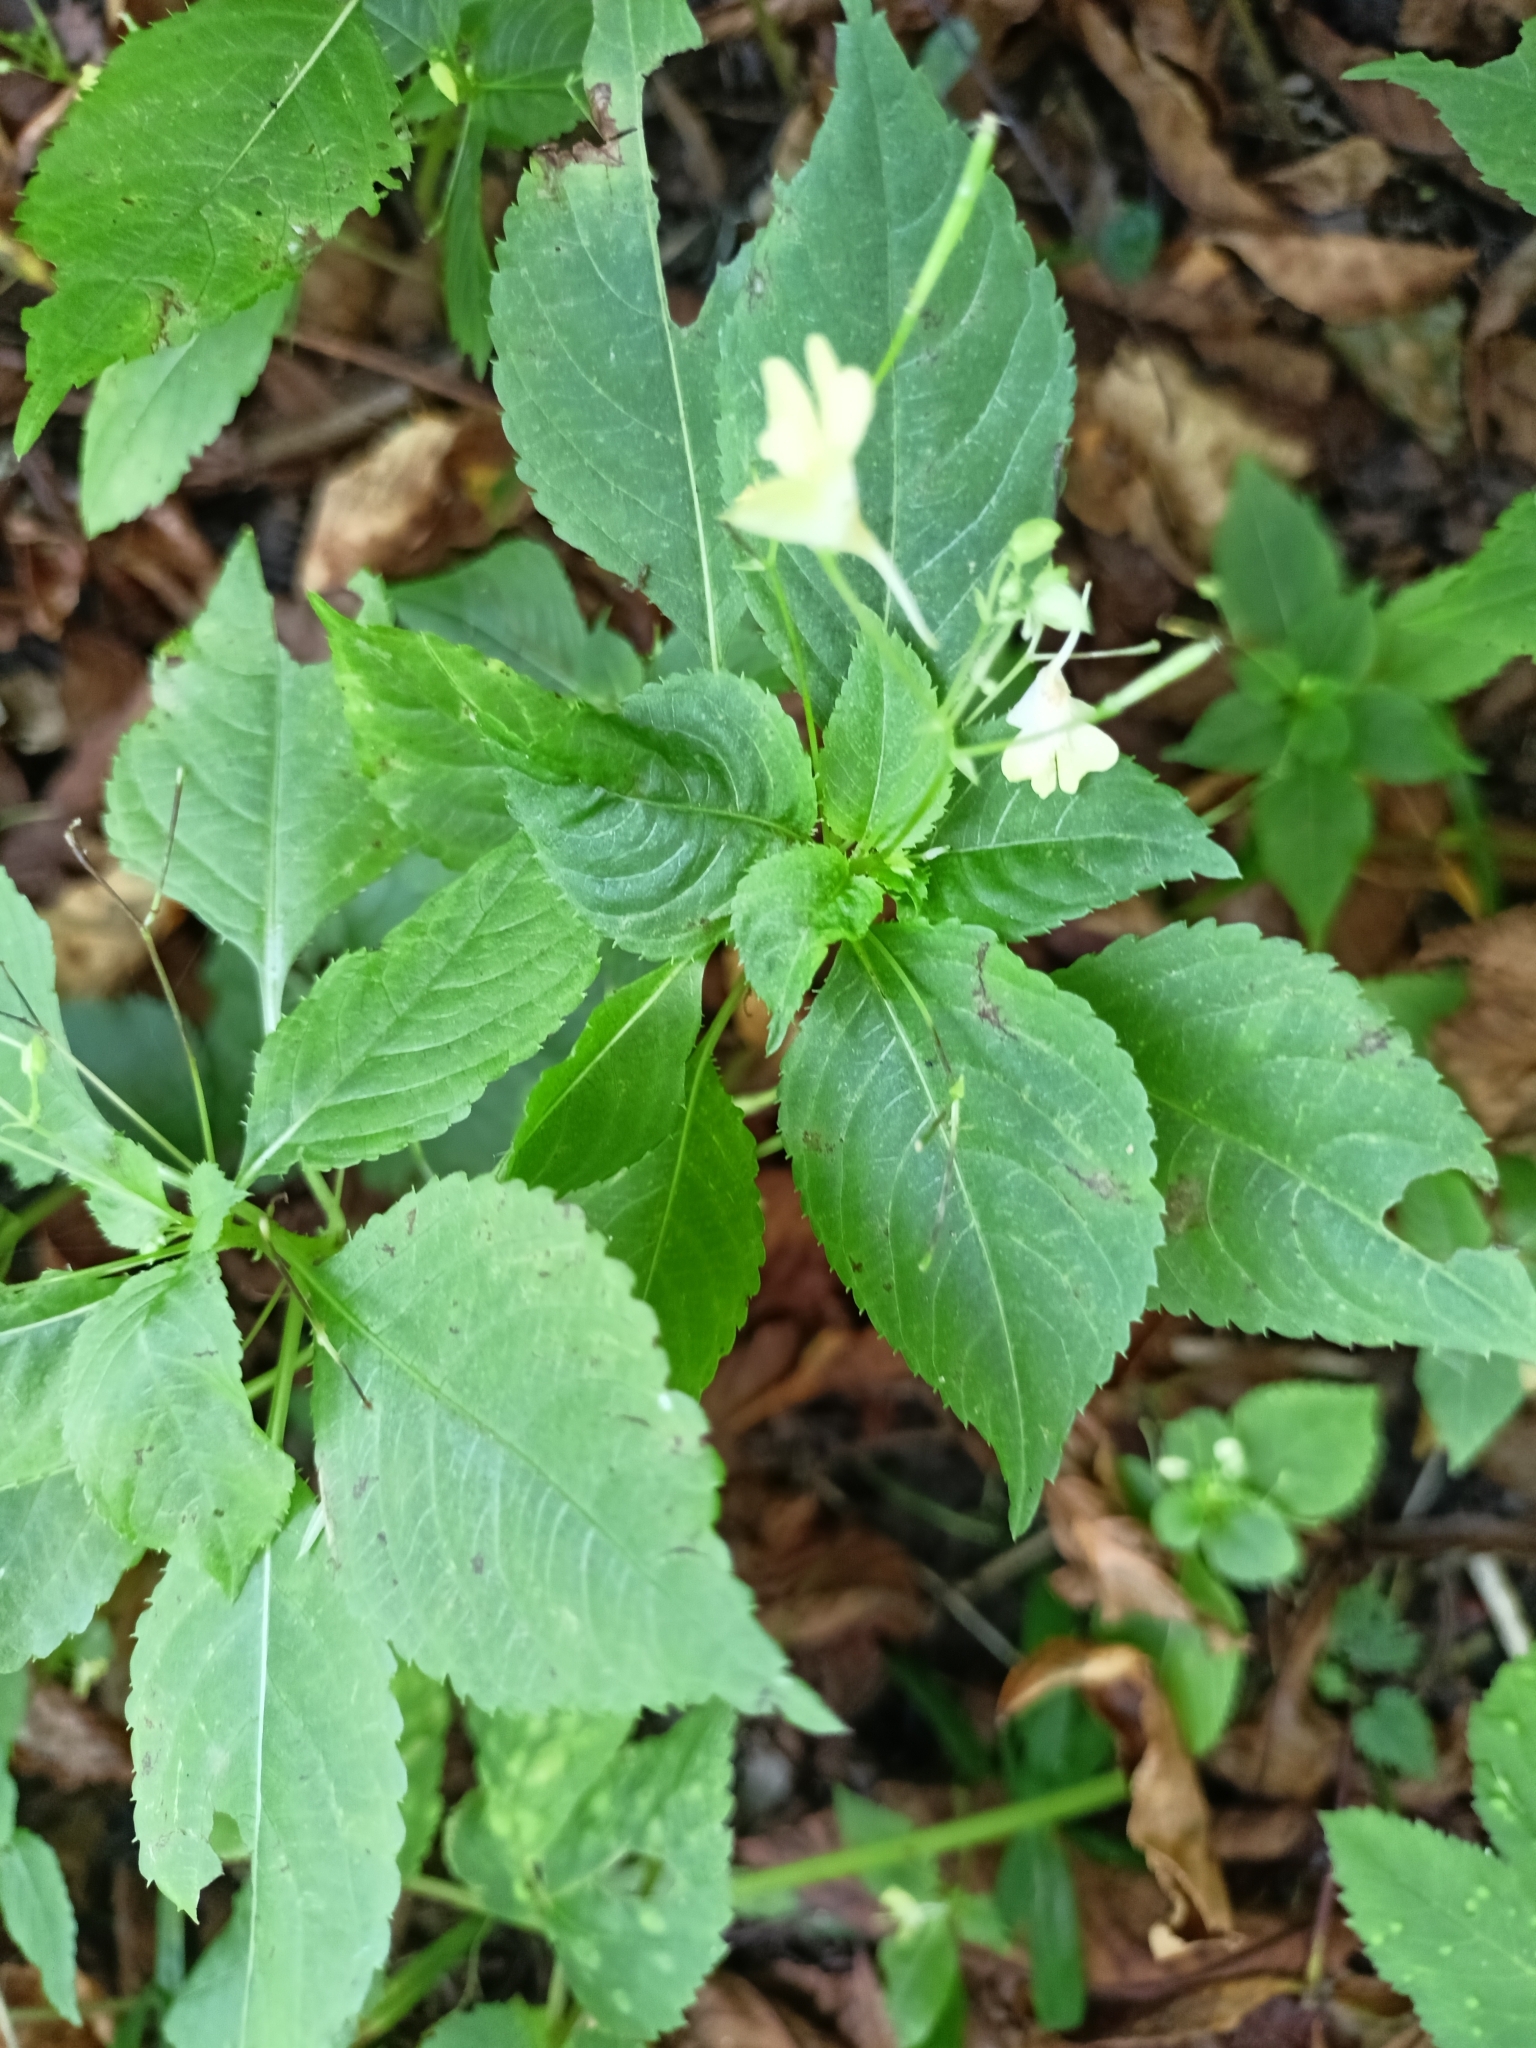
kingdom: Plantae
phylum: Tracheophyta
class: Magnoliopsida
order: Ericales
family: Balsaminaceae
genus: Impatiens
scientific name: Impatiens parviflora
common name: Small balsam
